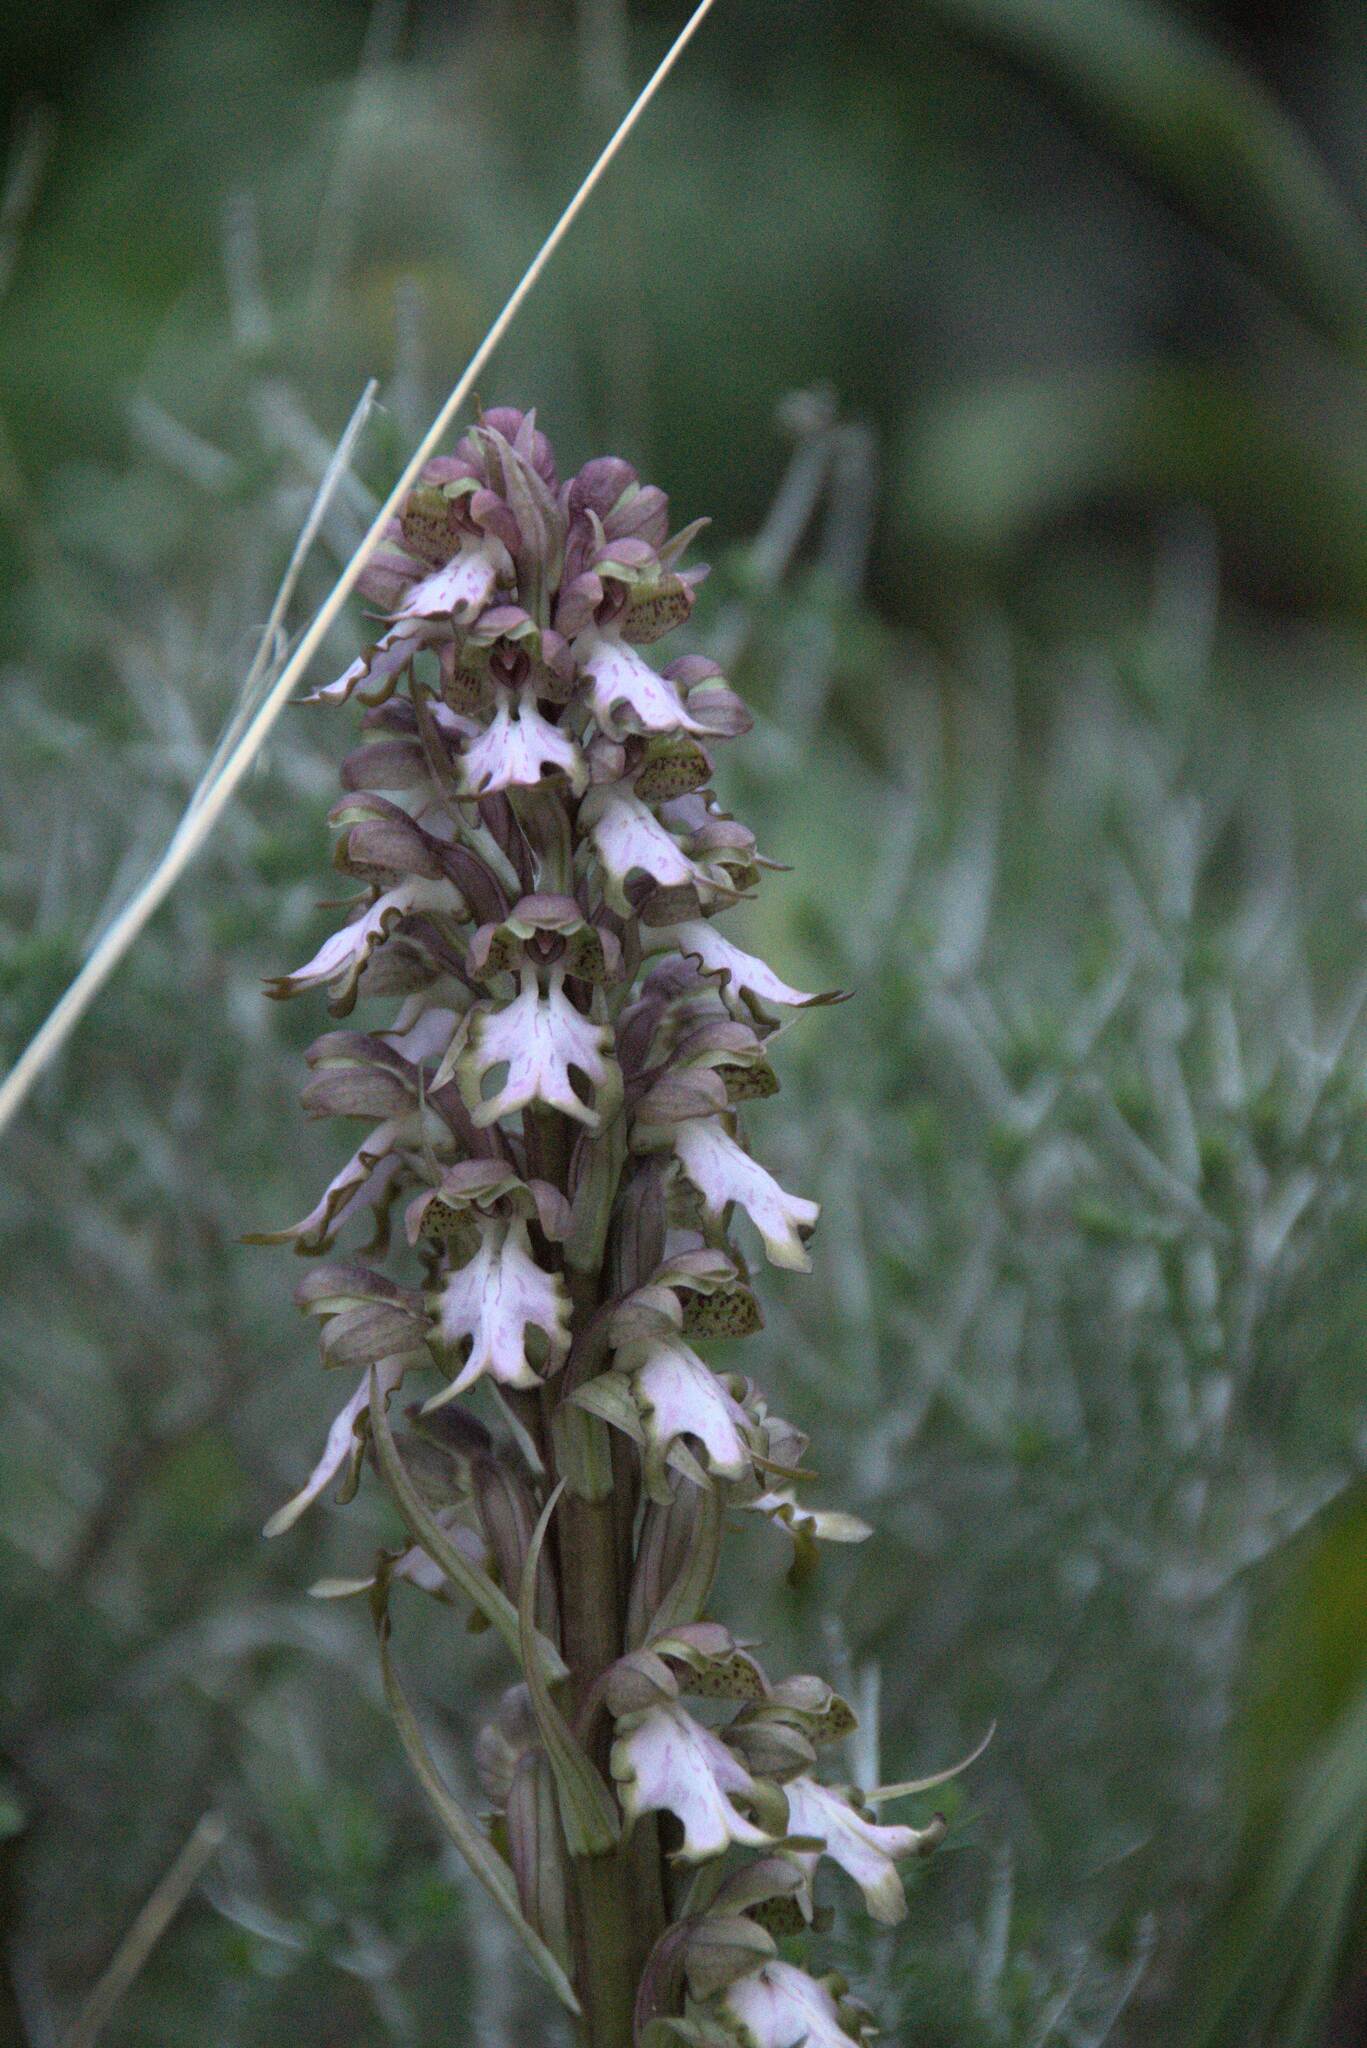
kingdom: Plantae
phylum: Tracheophyta
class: Liliopsida
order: Asparagales
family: Orchidaceae
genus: Himantoglossum
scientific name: Himantoglossum robertianum
